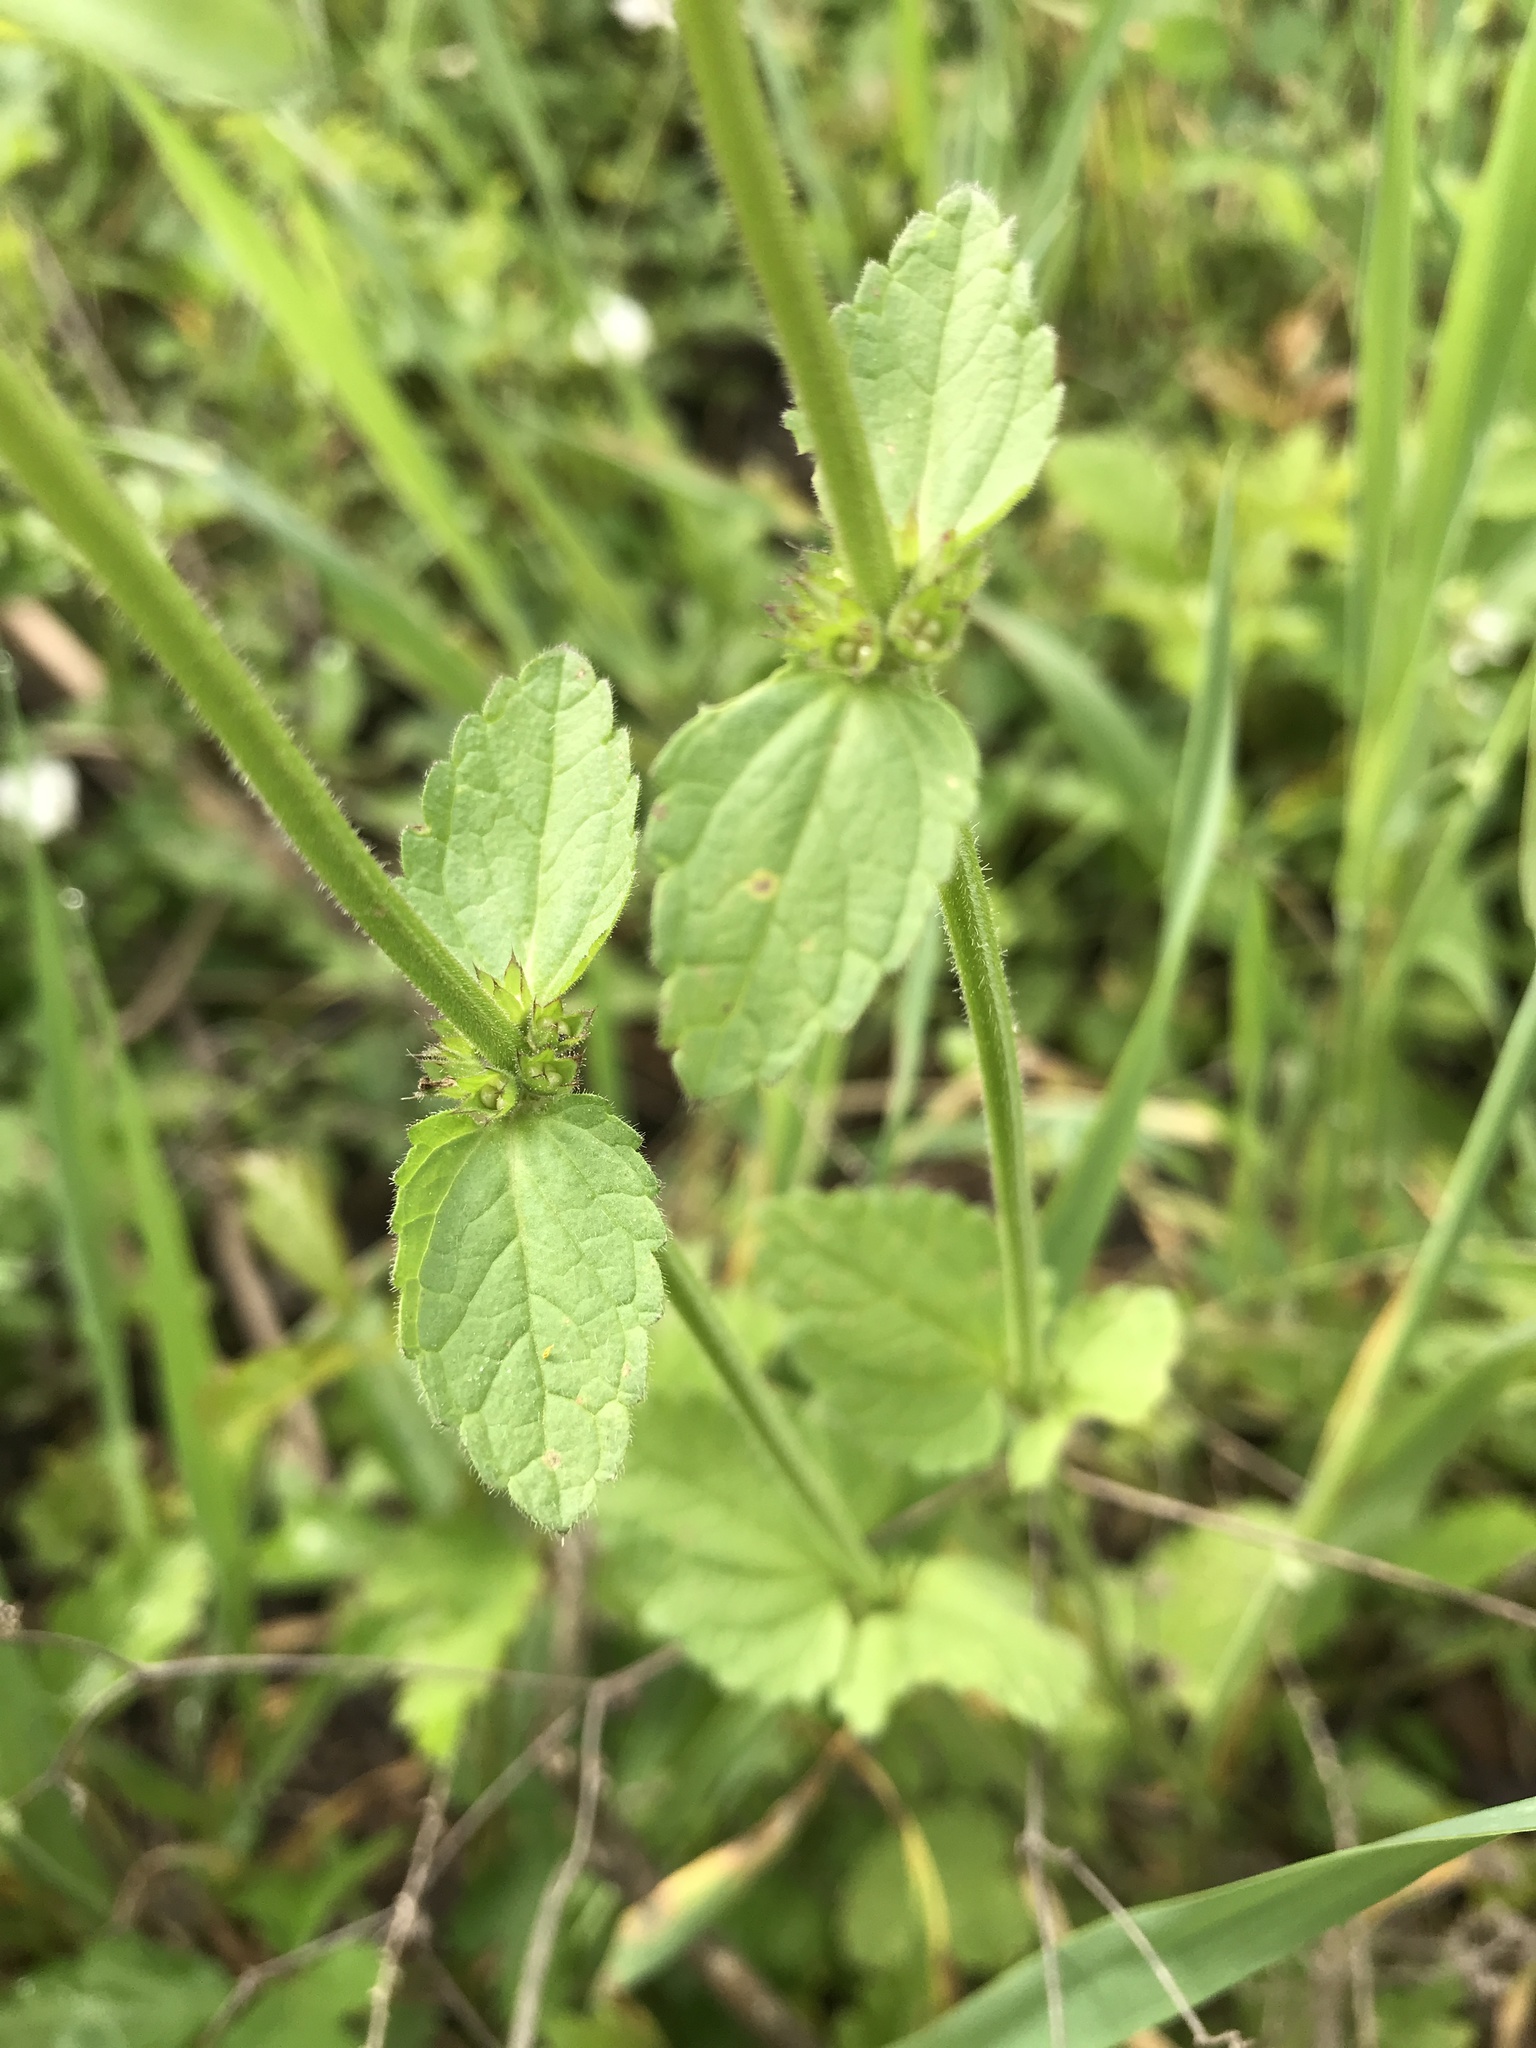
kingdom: Plantae
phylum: Tracheophyta
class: Magnoliopsida
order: Lamiales
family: Lamiaceae
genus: Stachys
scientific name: Stachys
